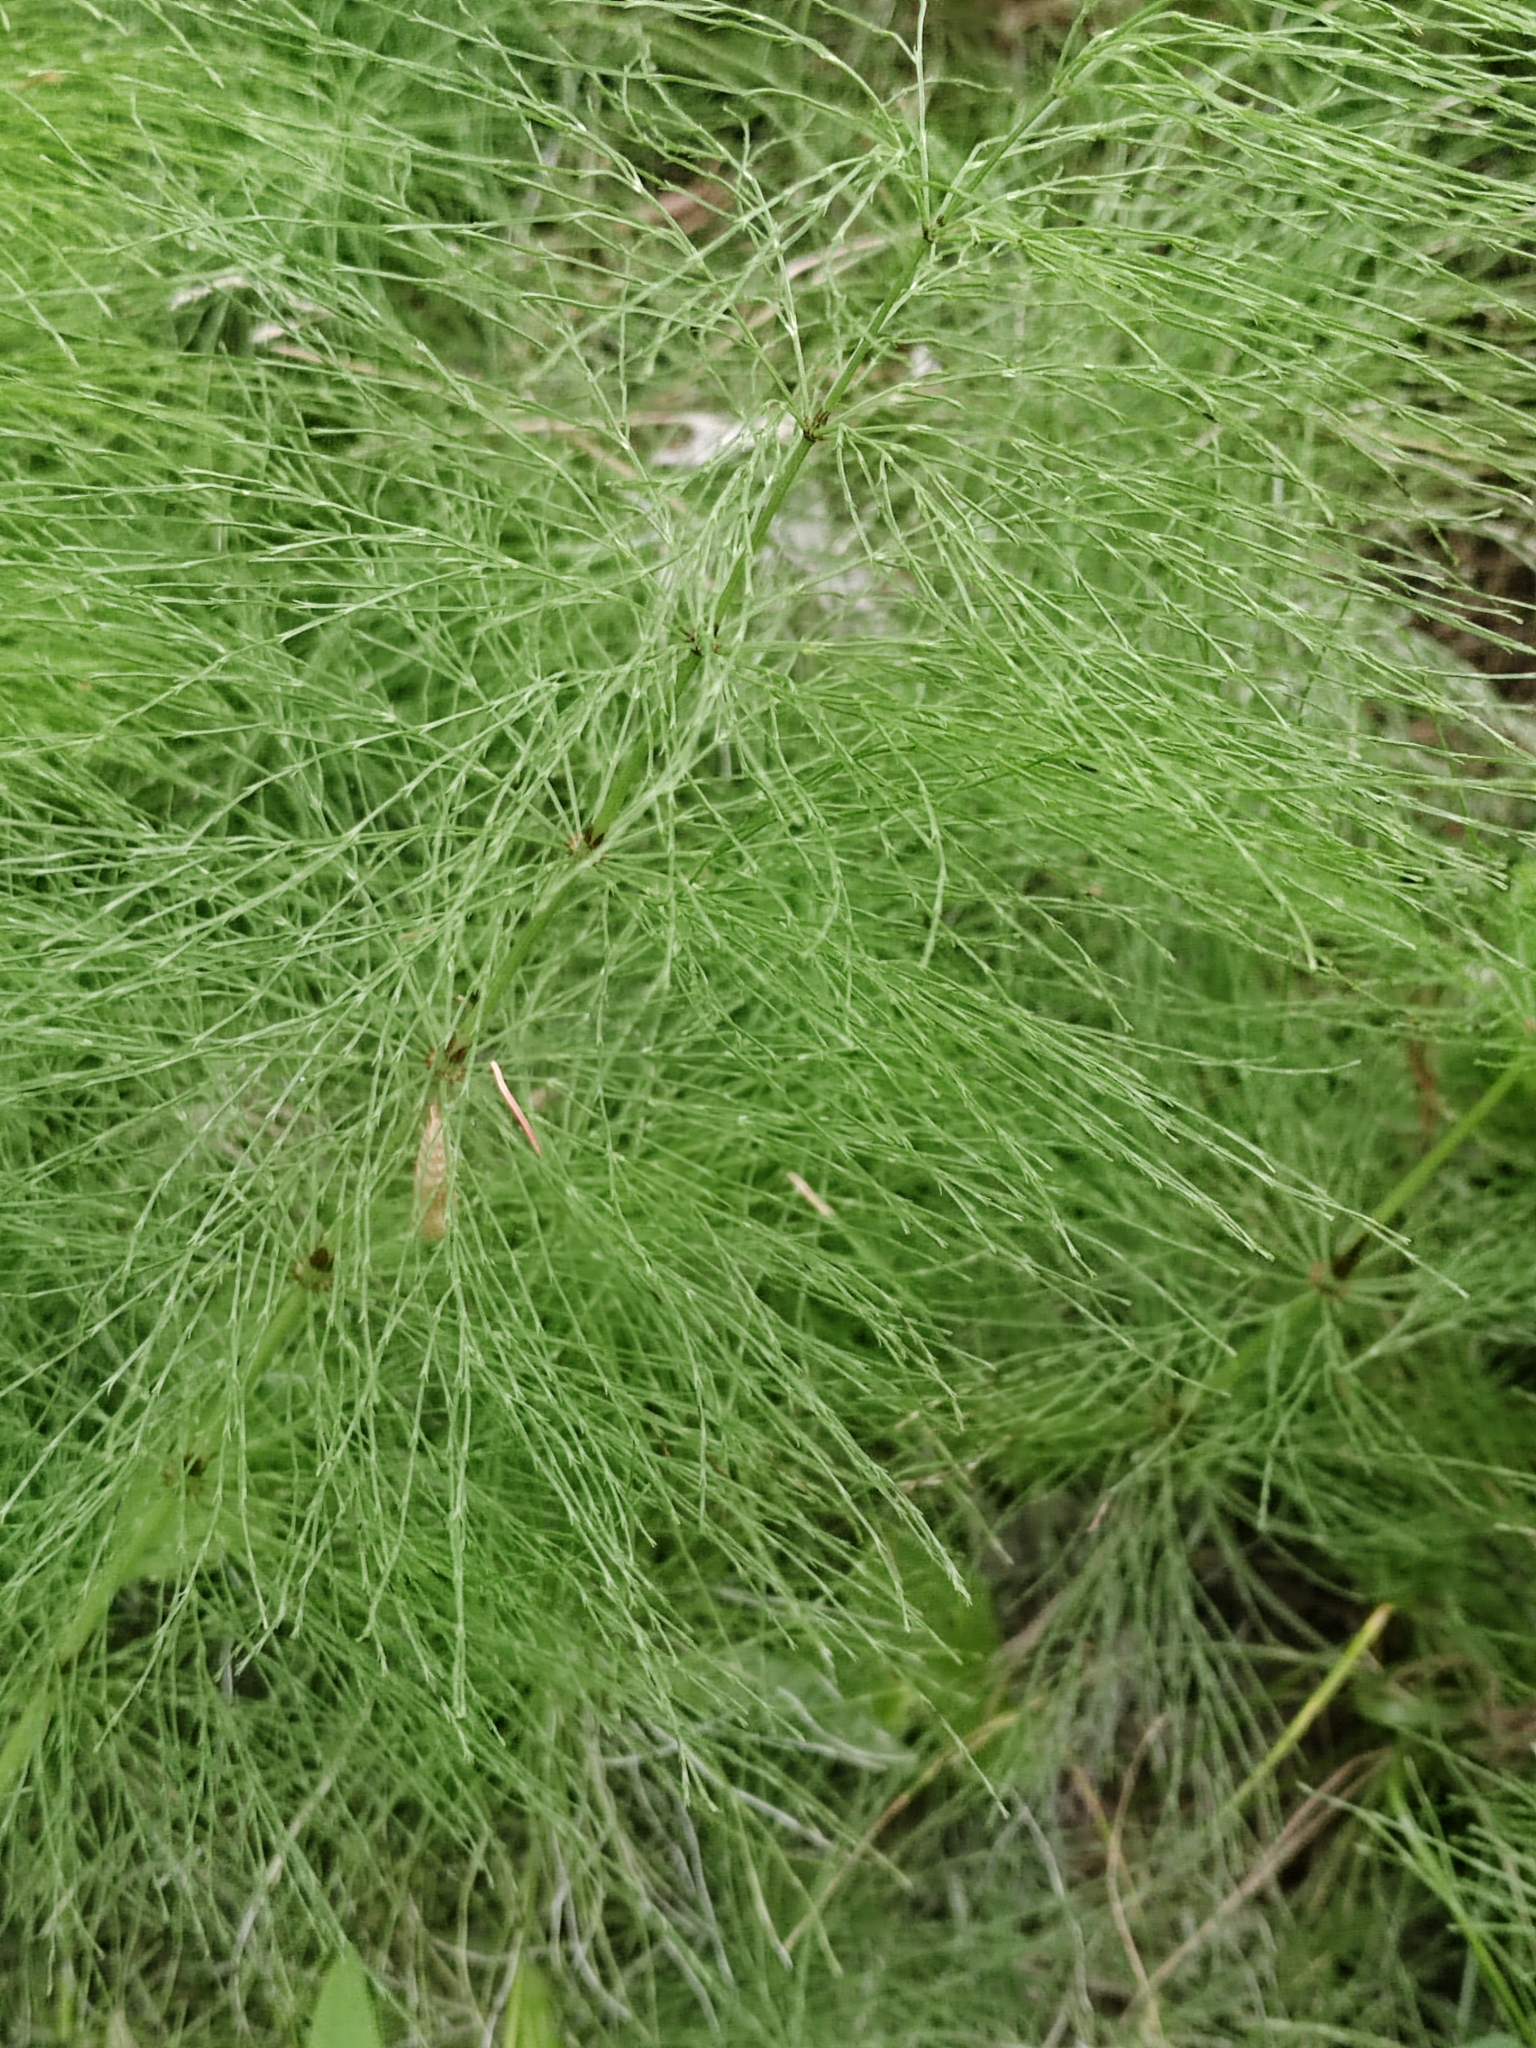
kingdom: Plantae
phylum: Tracheophyta
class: Polypodiopsida
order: Equisetales
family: Equisetaceae
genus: Equisetum
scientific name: Equisetum sylvaticum
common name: Wood horsetail
